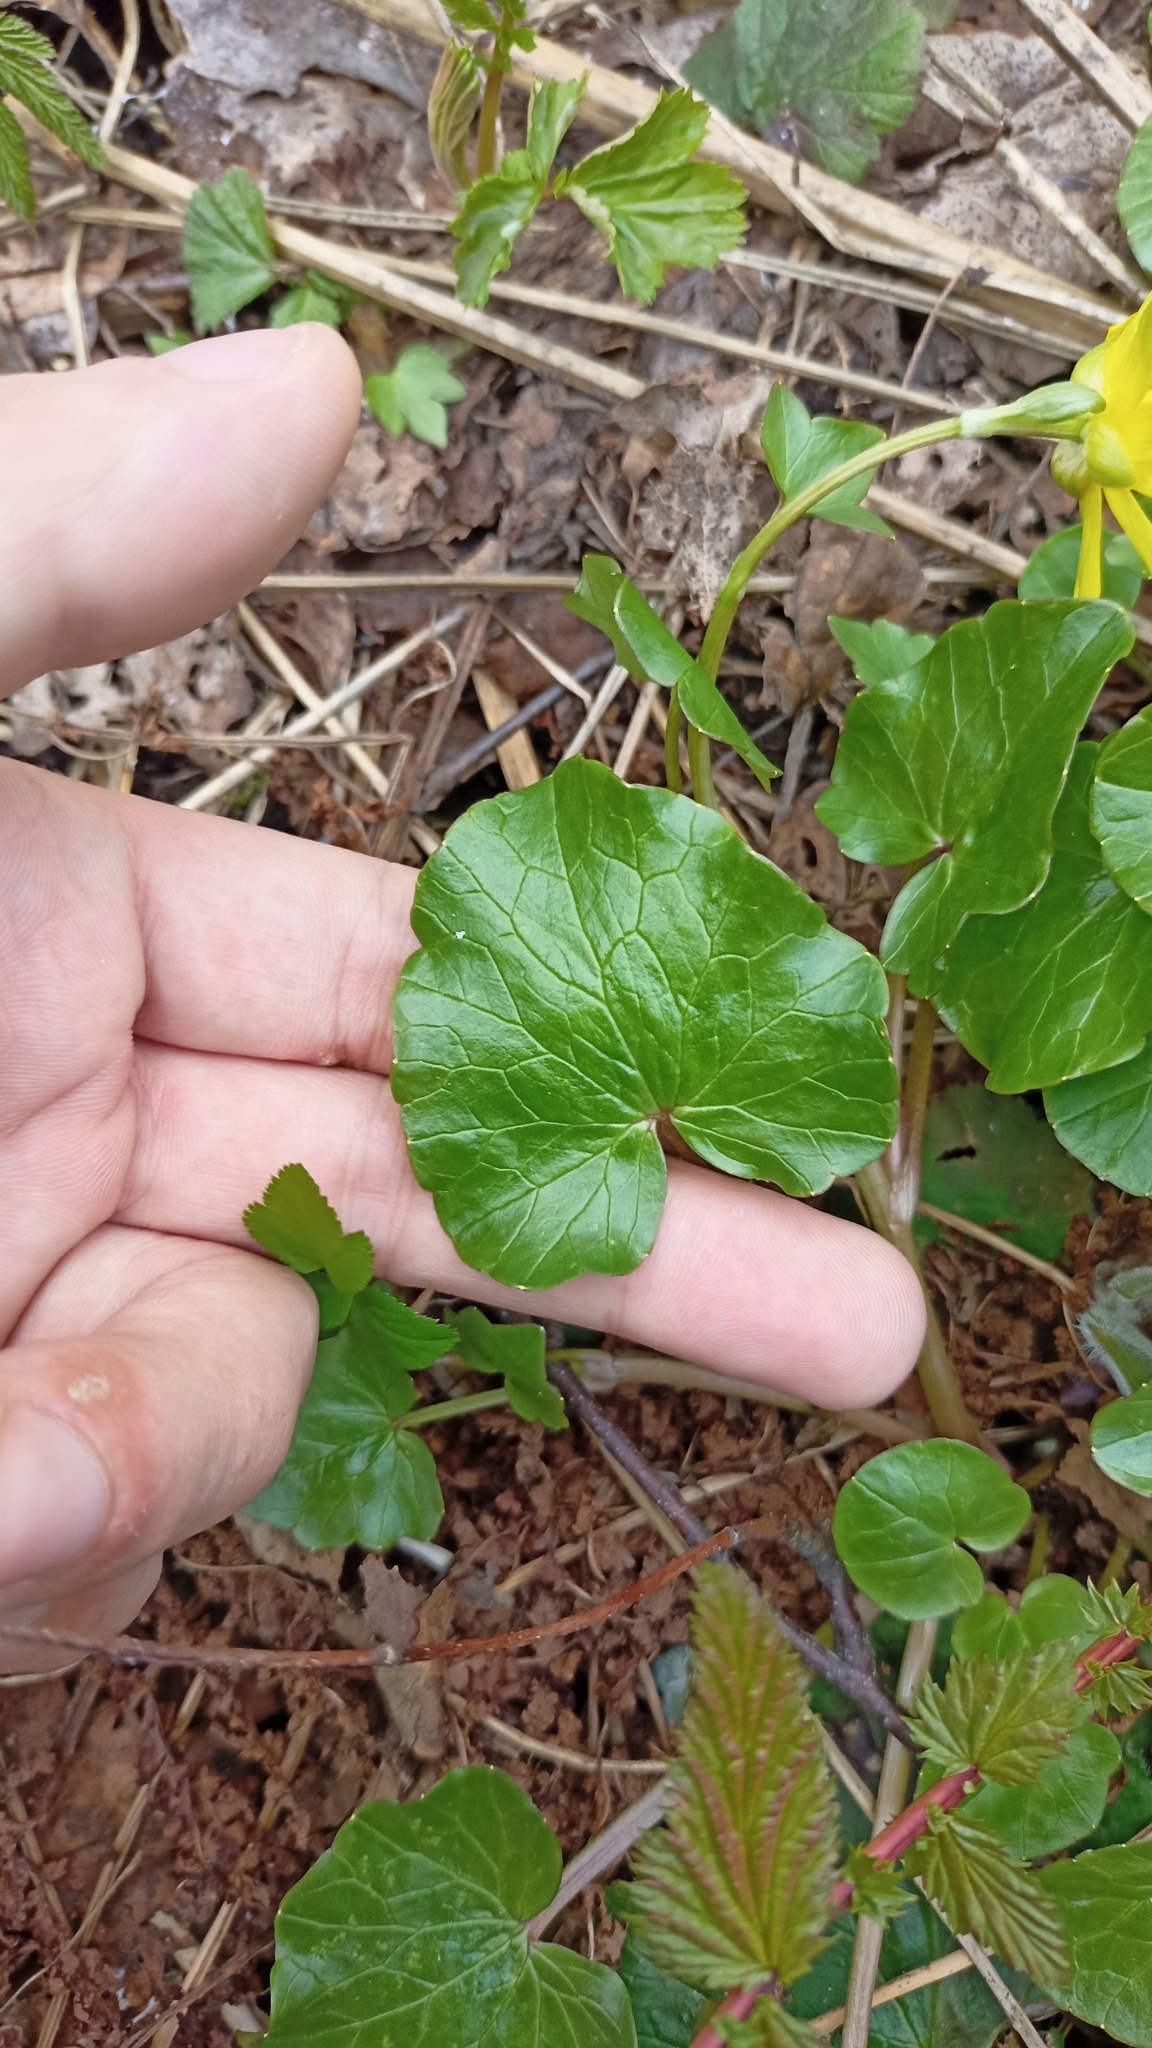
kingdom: Plantae
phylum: Tracheophyta
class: Magnoliopsida
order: Ranunculales
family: Ranunculaceae
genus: Ficaria
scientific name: Ficaria verna
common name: Lesser celandine
